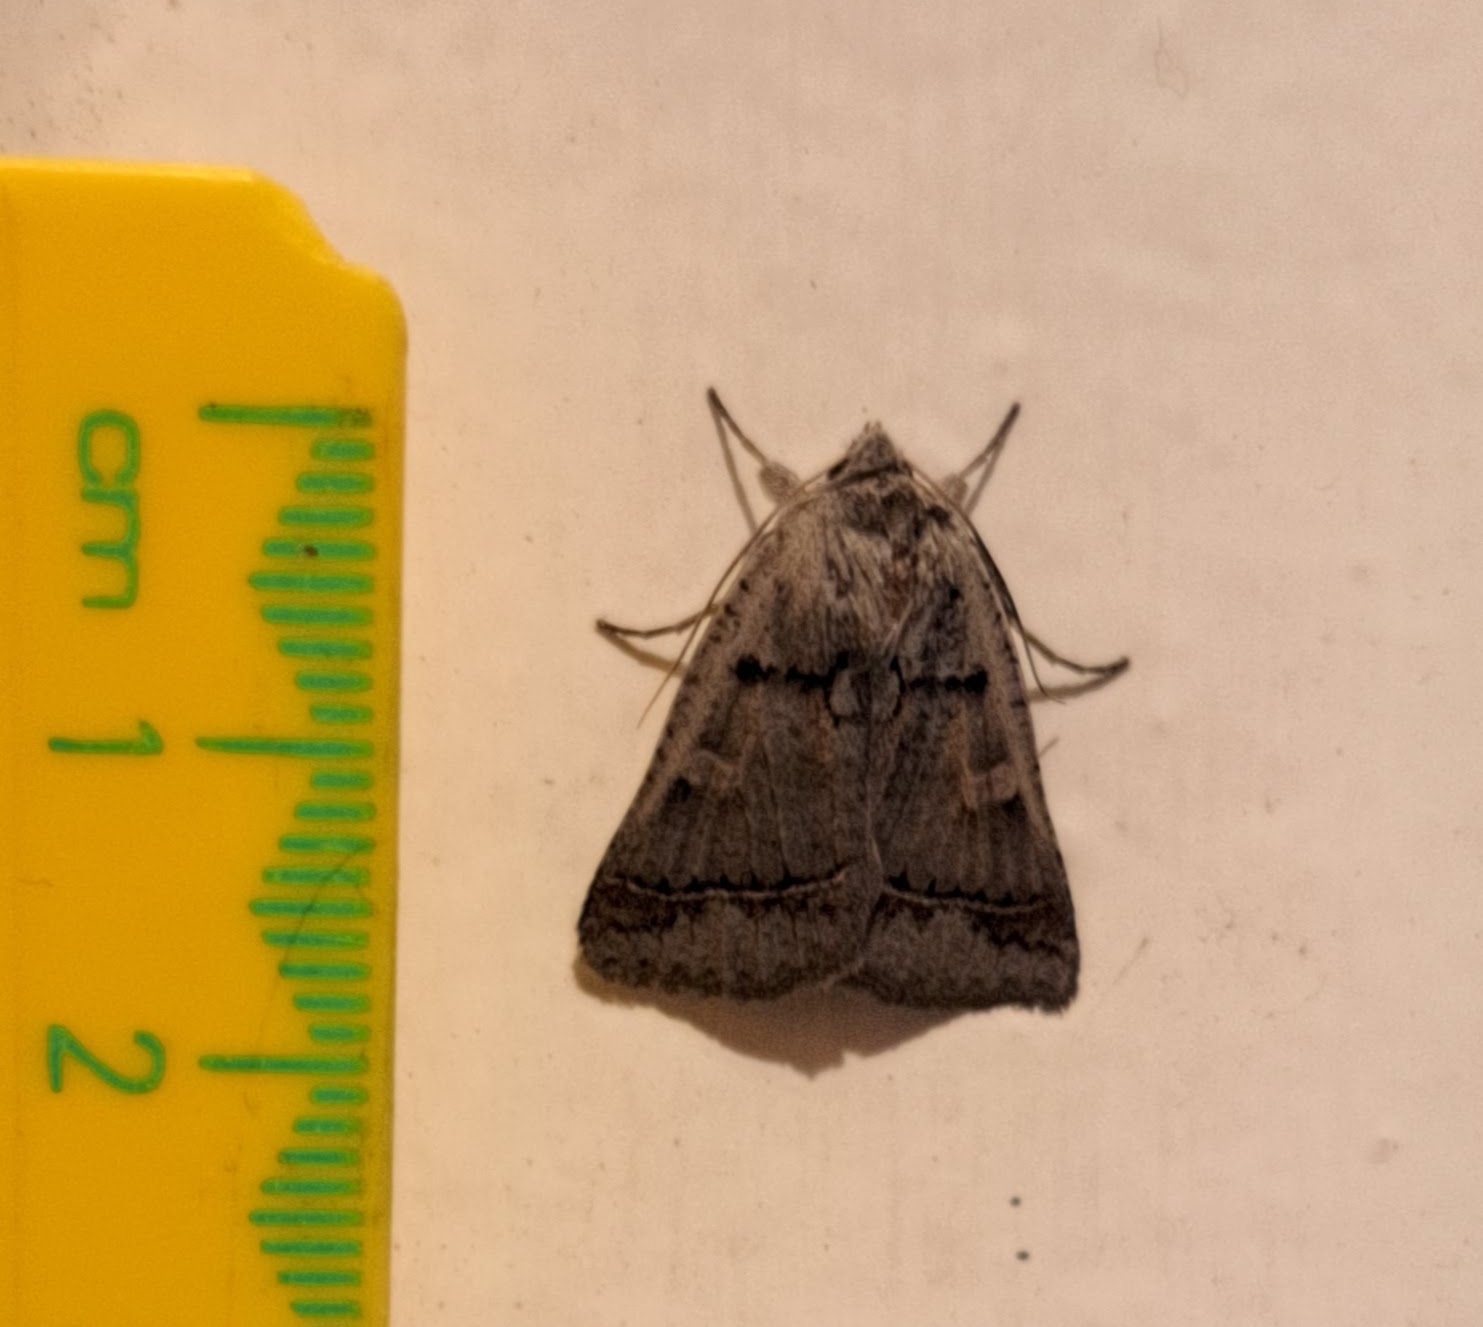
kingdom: Animalia
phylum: Arthropoda
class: Insecta
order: Lepidoptera
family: Erebidae
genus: Pantydia
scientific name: Pantydia sparsa
